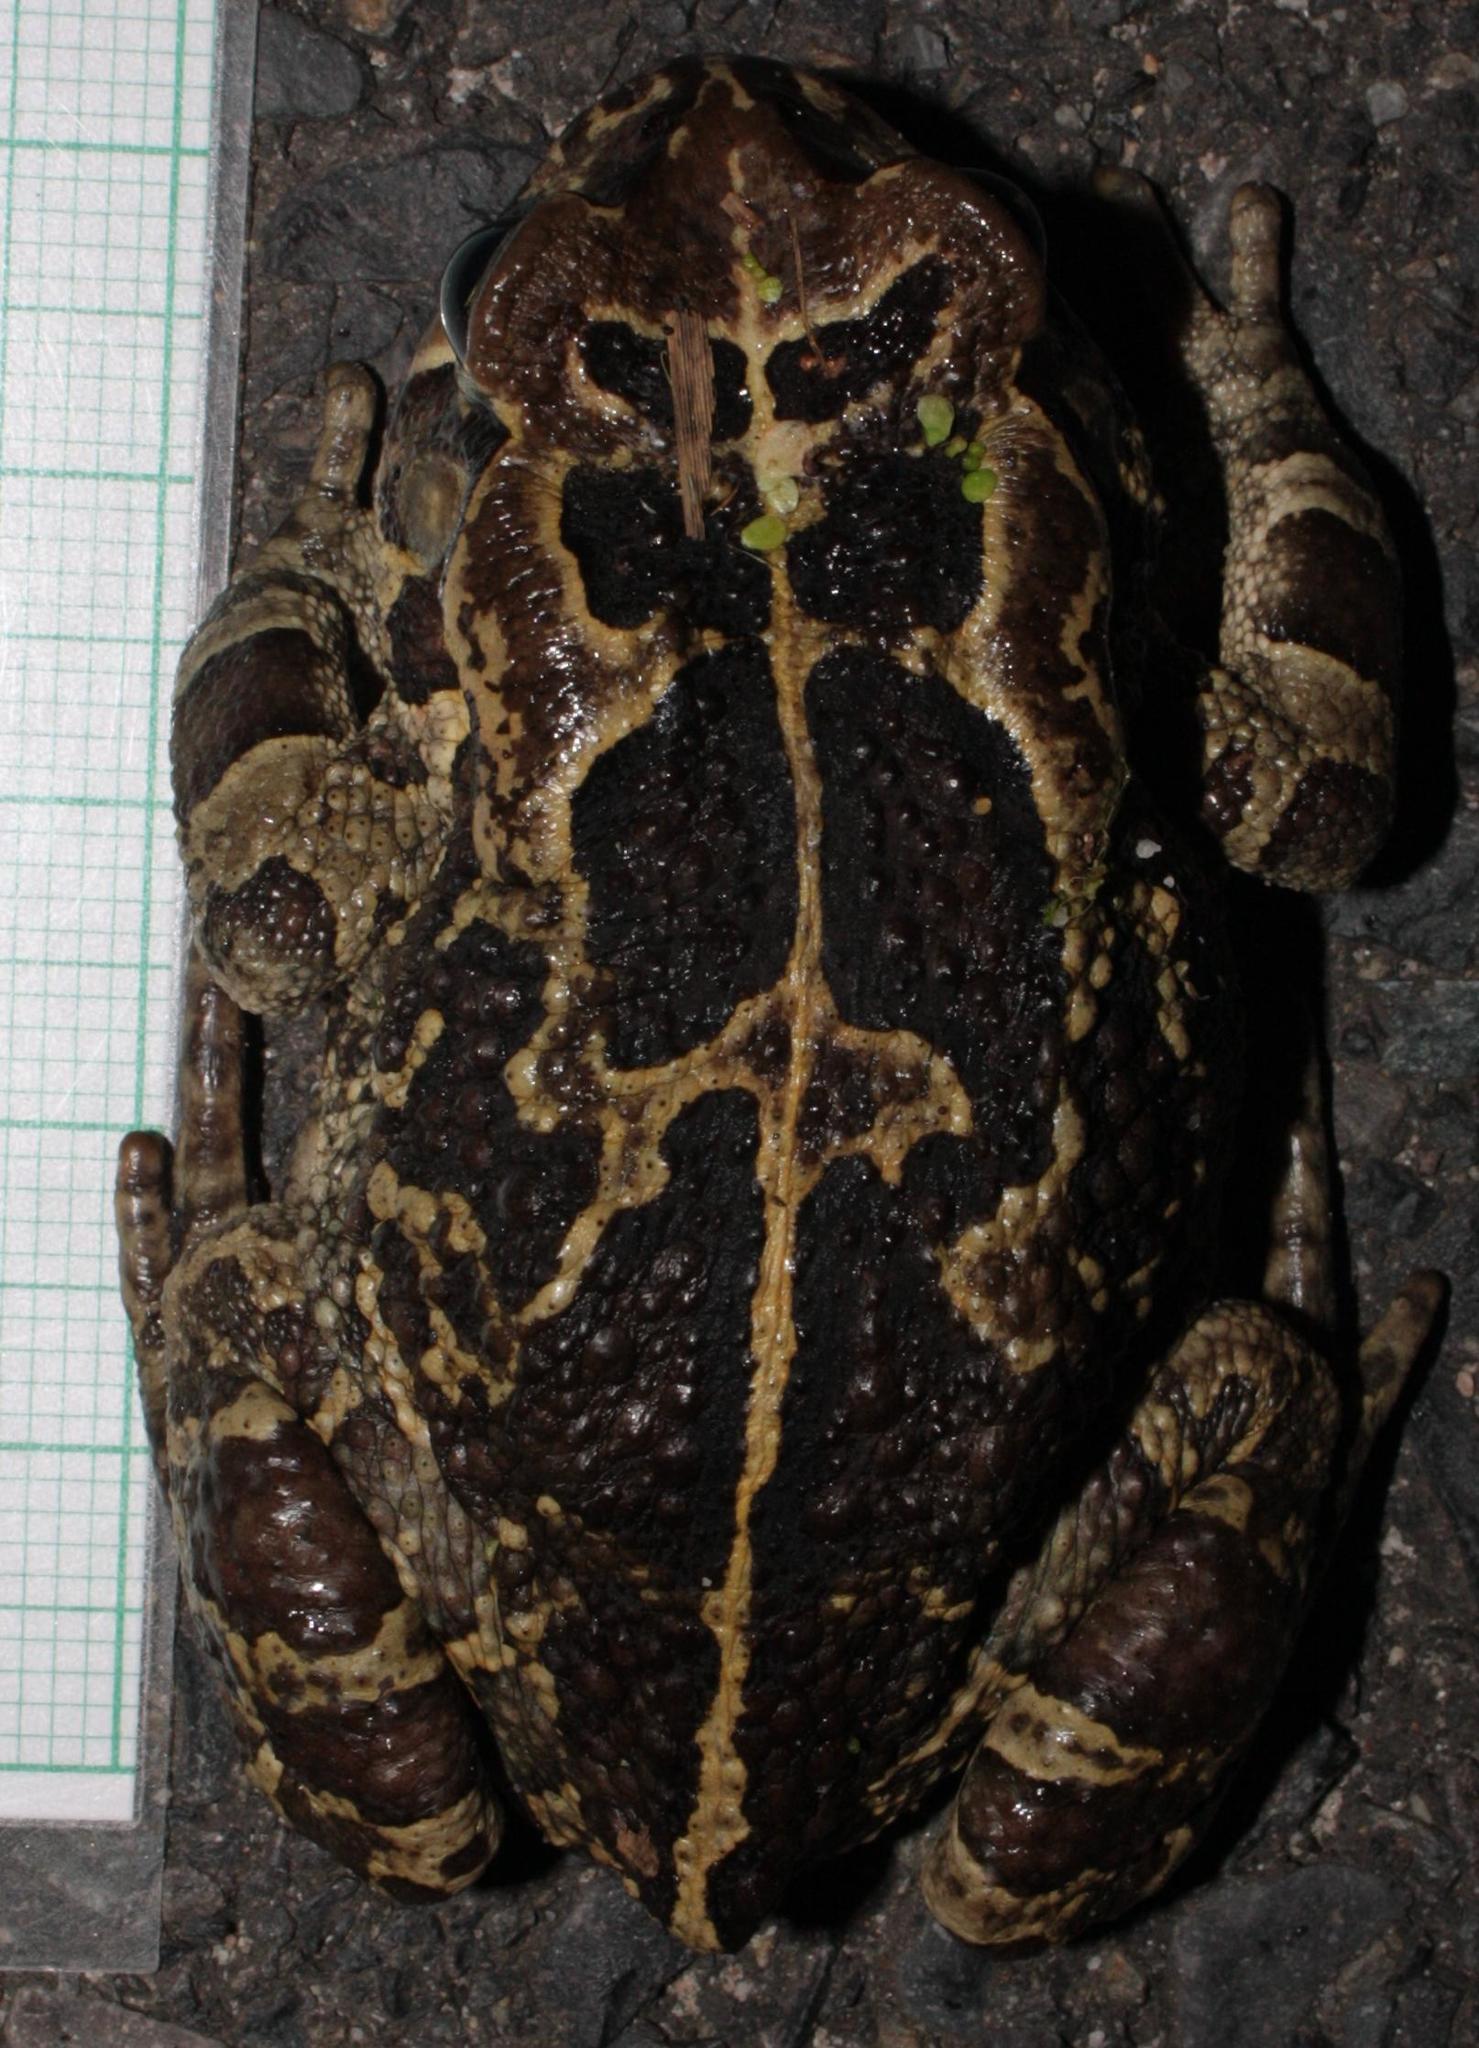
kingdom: Animalia
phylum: Chordata
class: Amphibia
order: Anura
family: Bufonidae
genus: Sclerophrys
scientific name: Sclerophrys pantherina
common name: Panther toad
